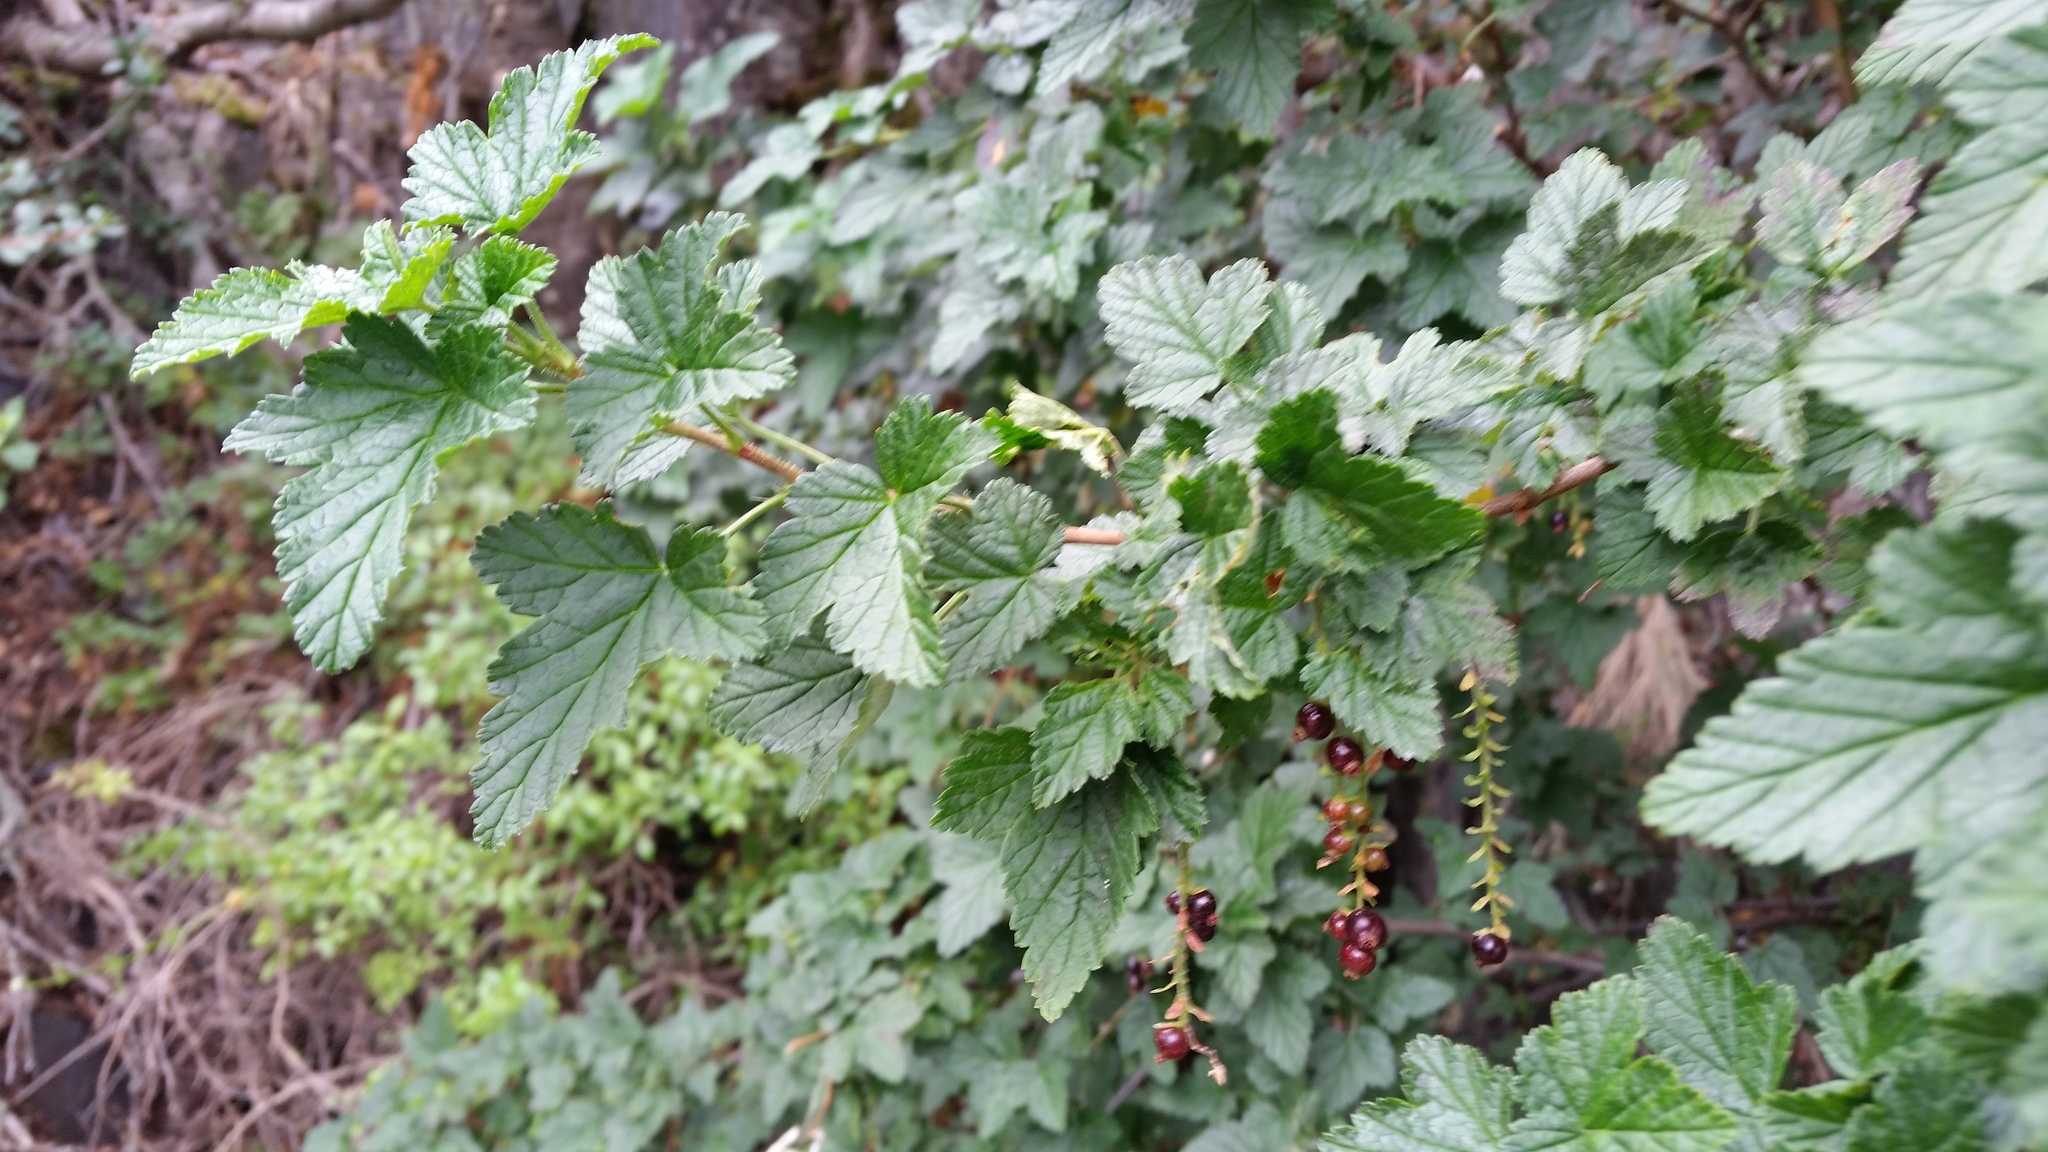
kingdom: Plantae
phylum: Tracheophyta
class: Magnoliopsida
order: Saxifragales
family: Grossulariaceae
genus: Ribes
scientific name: Ribes magellanicum
